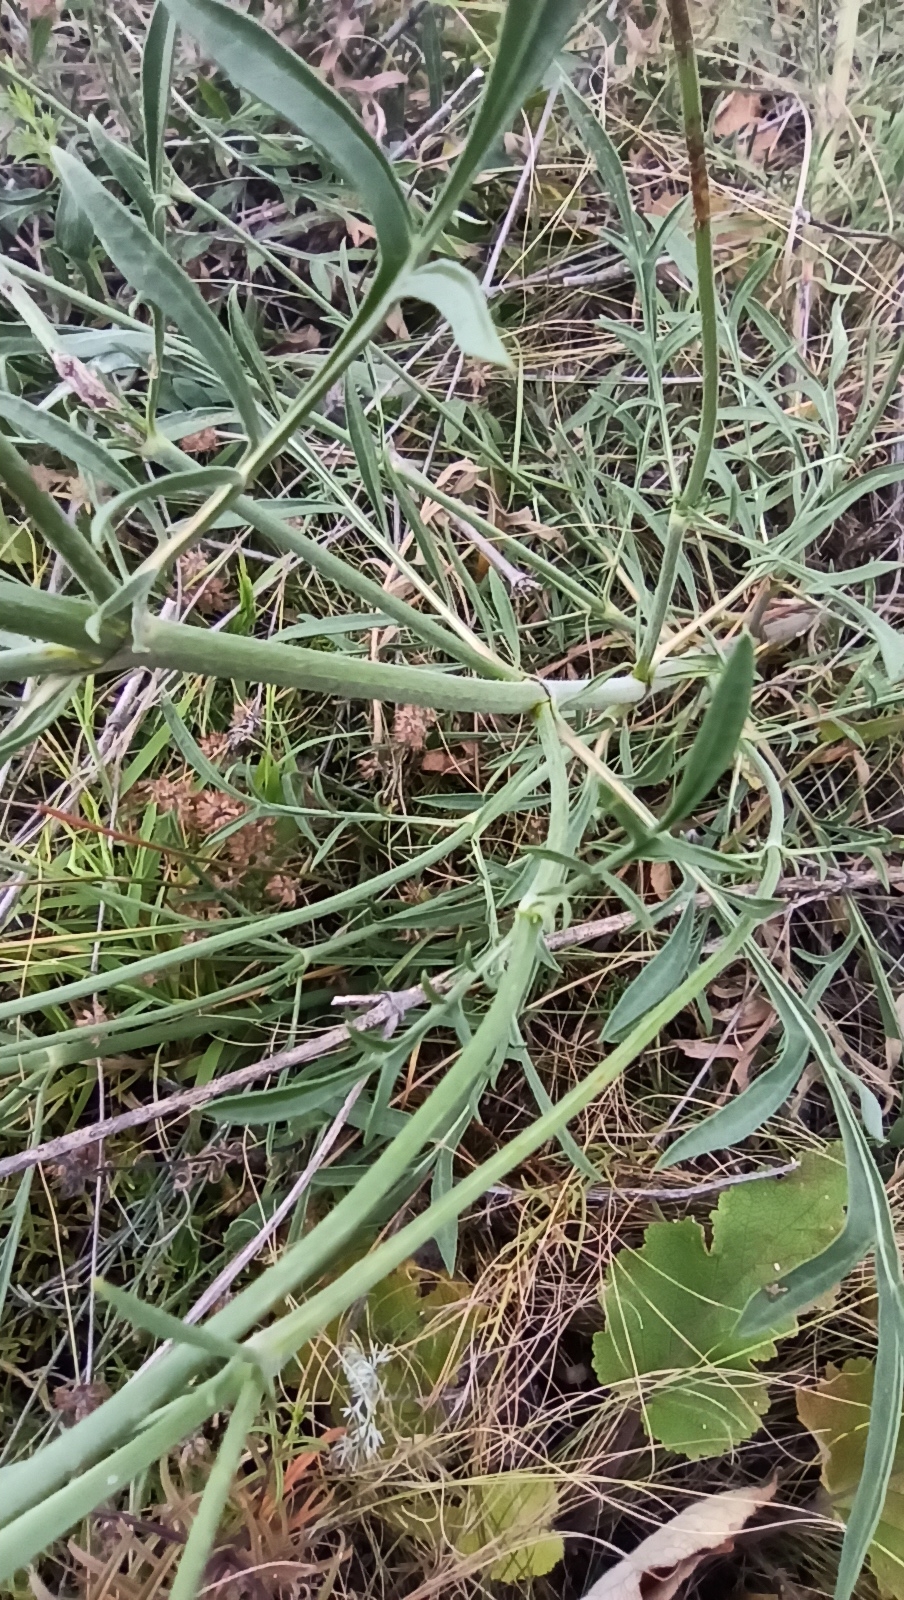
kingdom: Plantae
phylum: Tracheophyta
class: Magnoliopsida
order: Dipsacales
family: Caprifoliaceae
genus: Cephalaria
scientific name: Cephalaria uralensis
